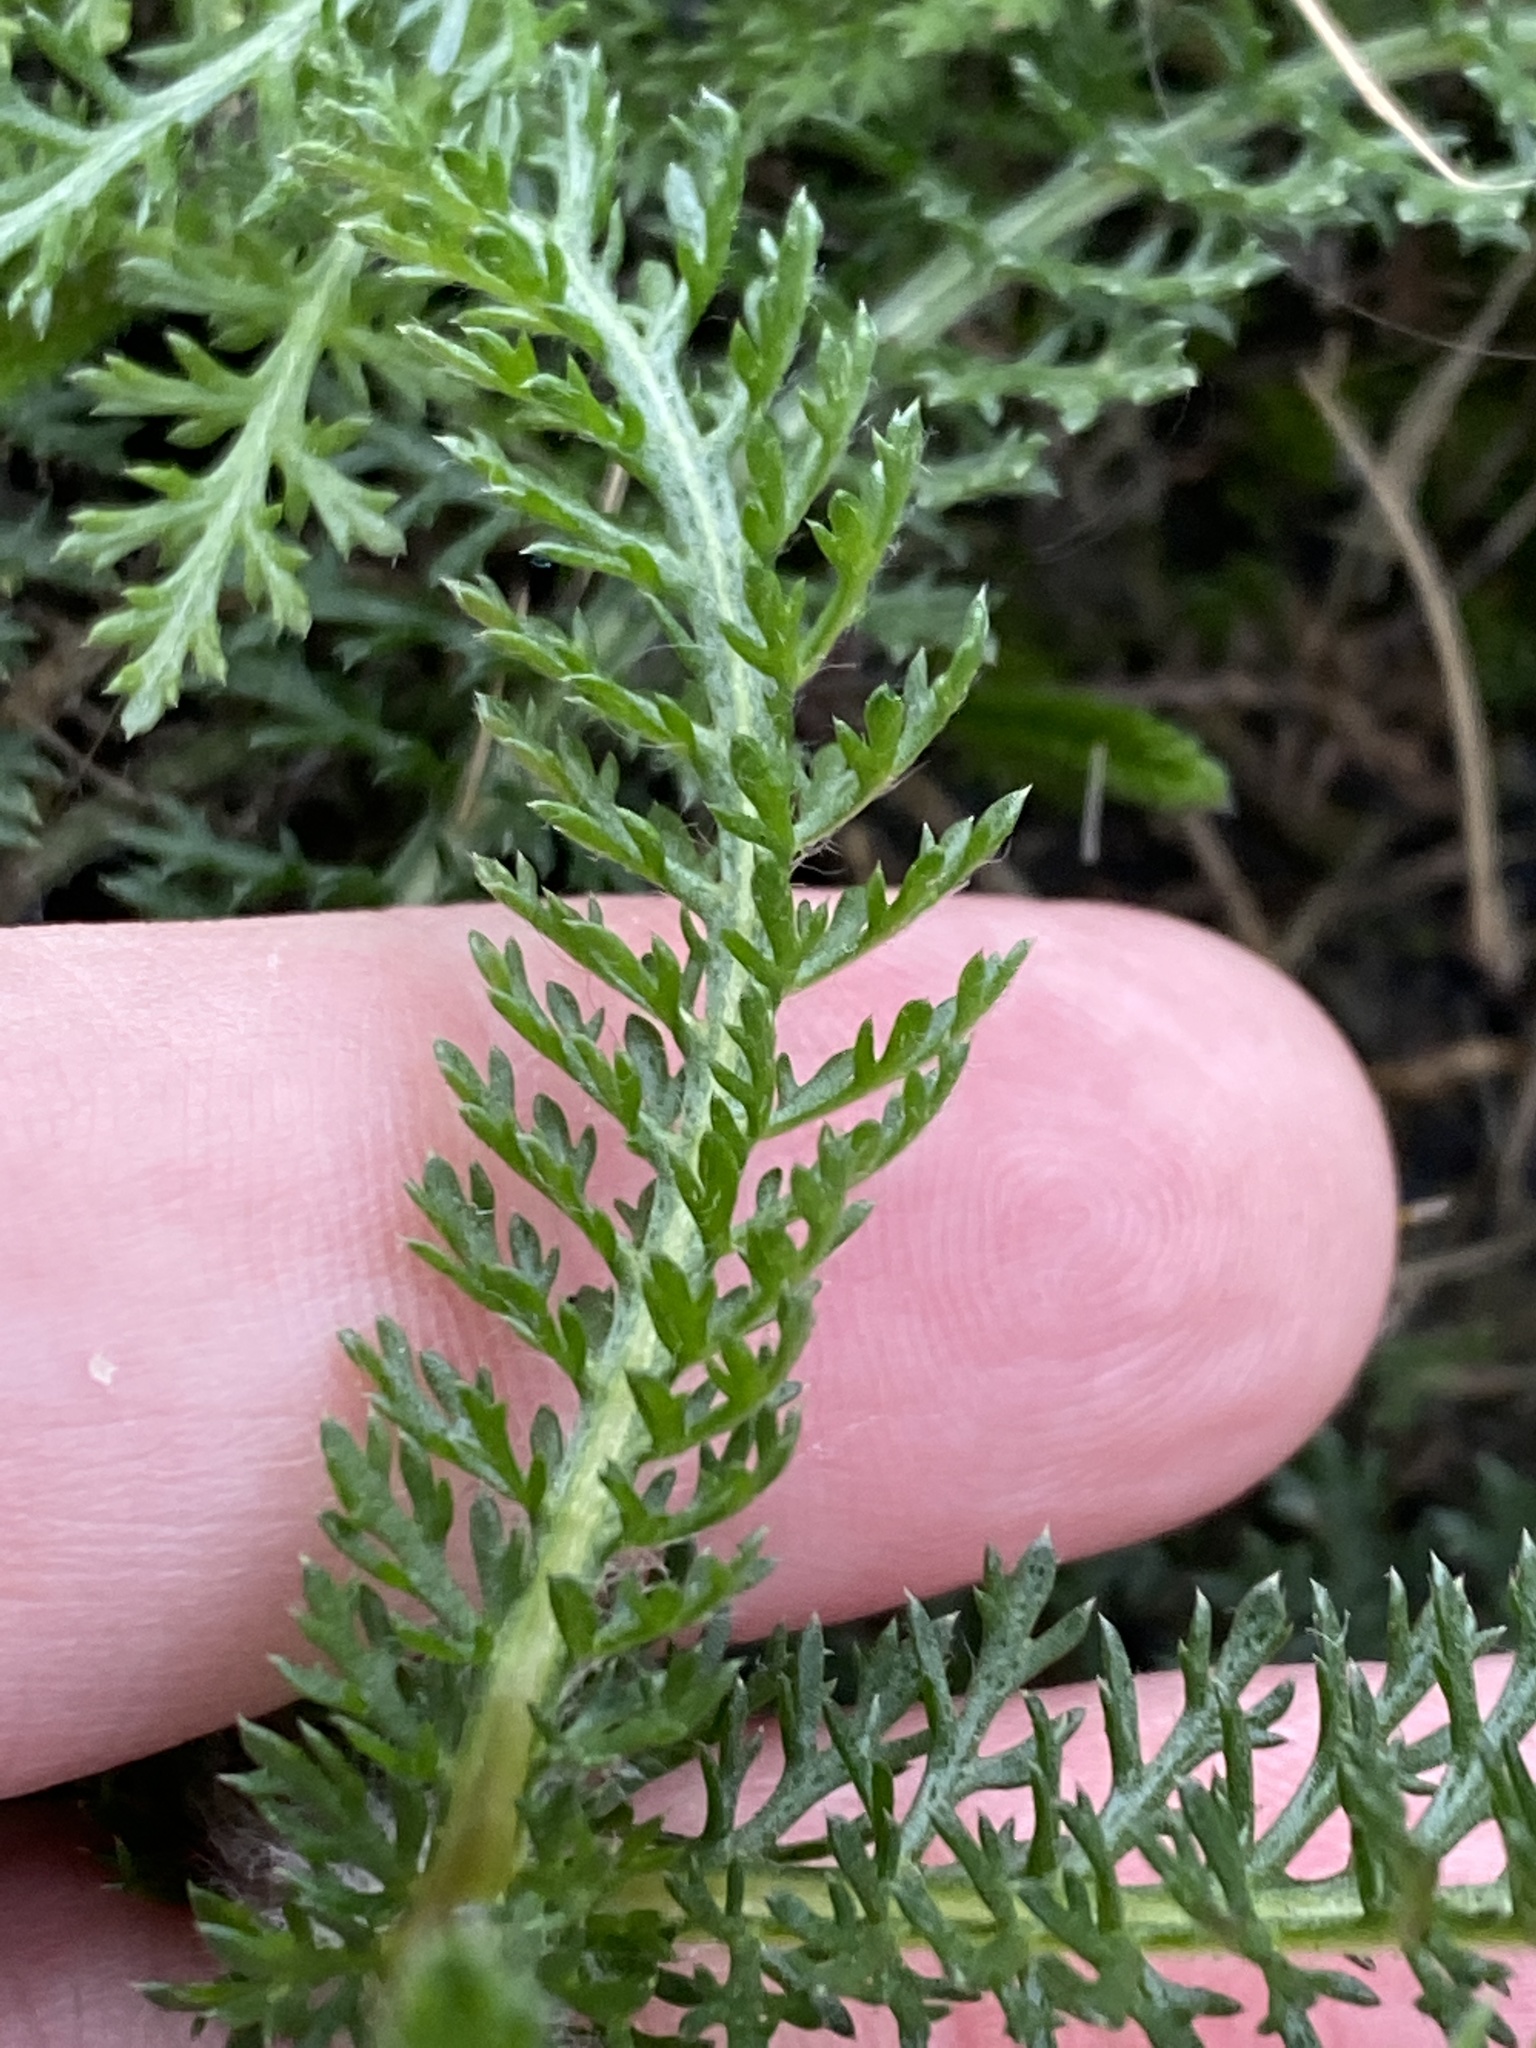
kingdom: Plantae
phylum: Tracheophyta
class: Magnoliopsida
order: Asterales
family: Asteraceae
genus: Achillea
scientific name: Achillea millefolium
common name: Yarrow
